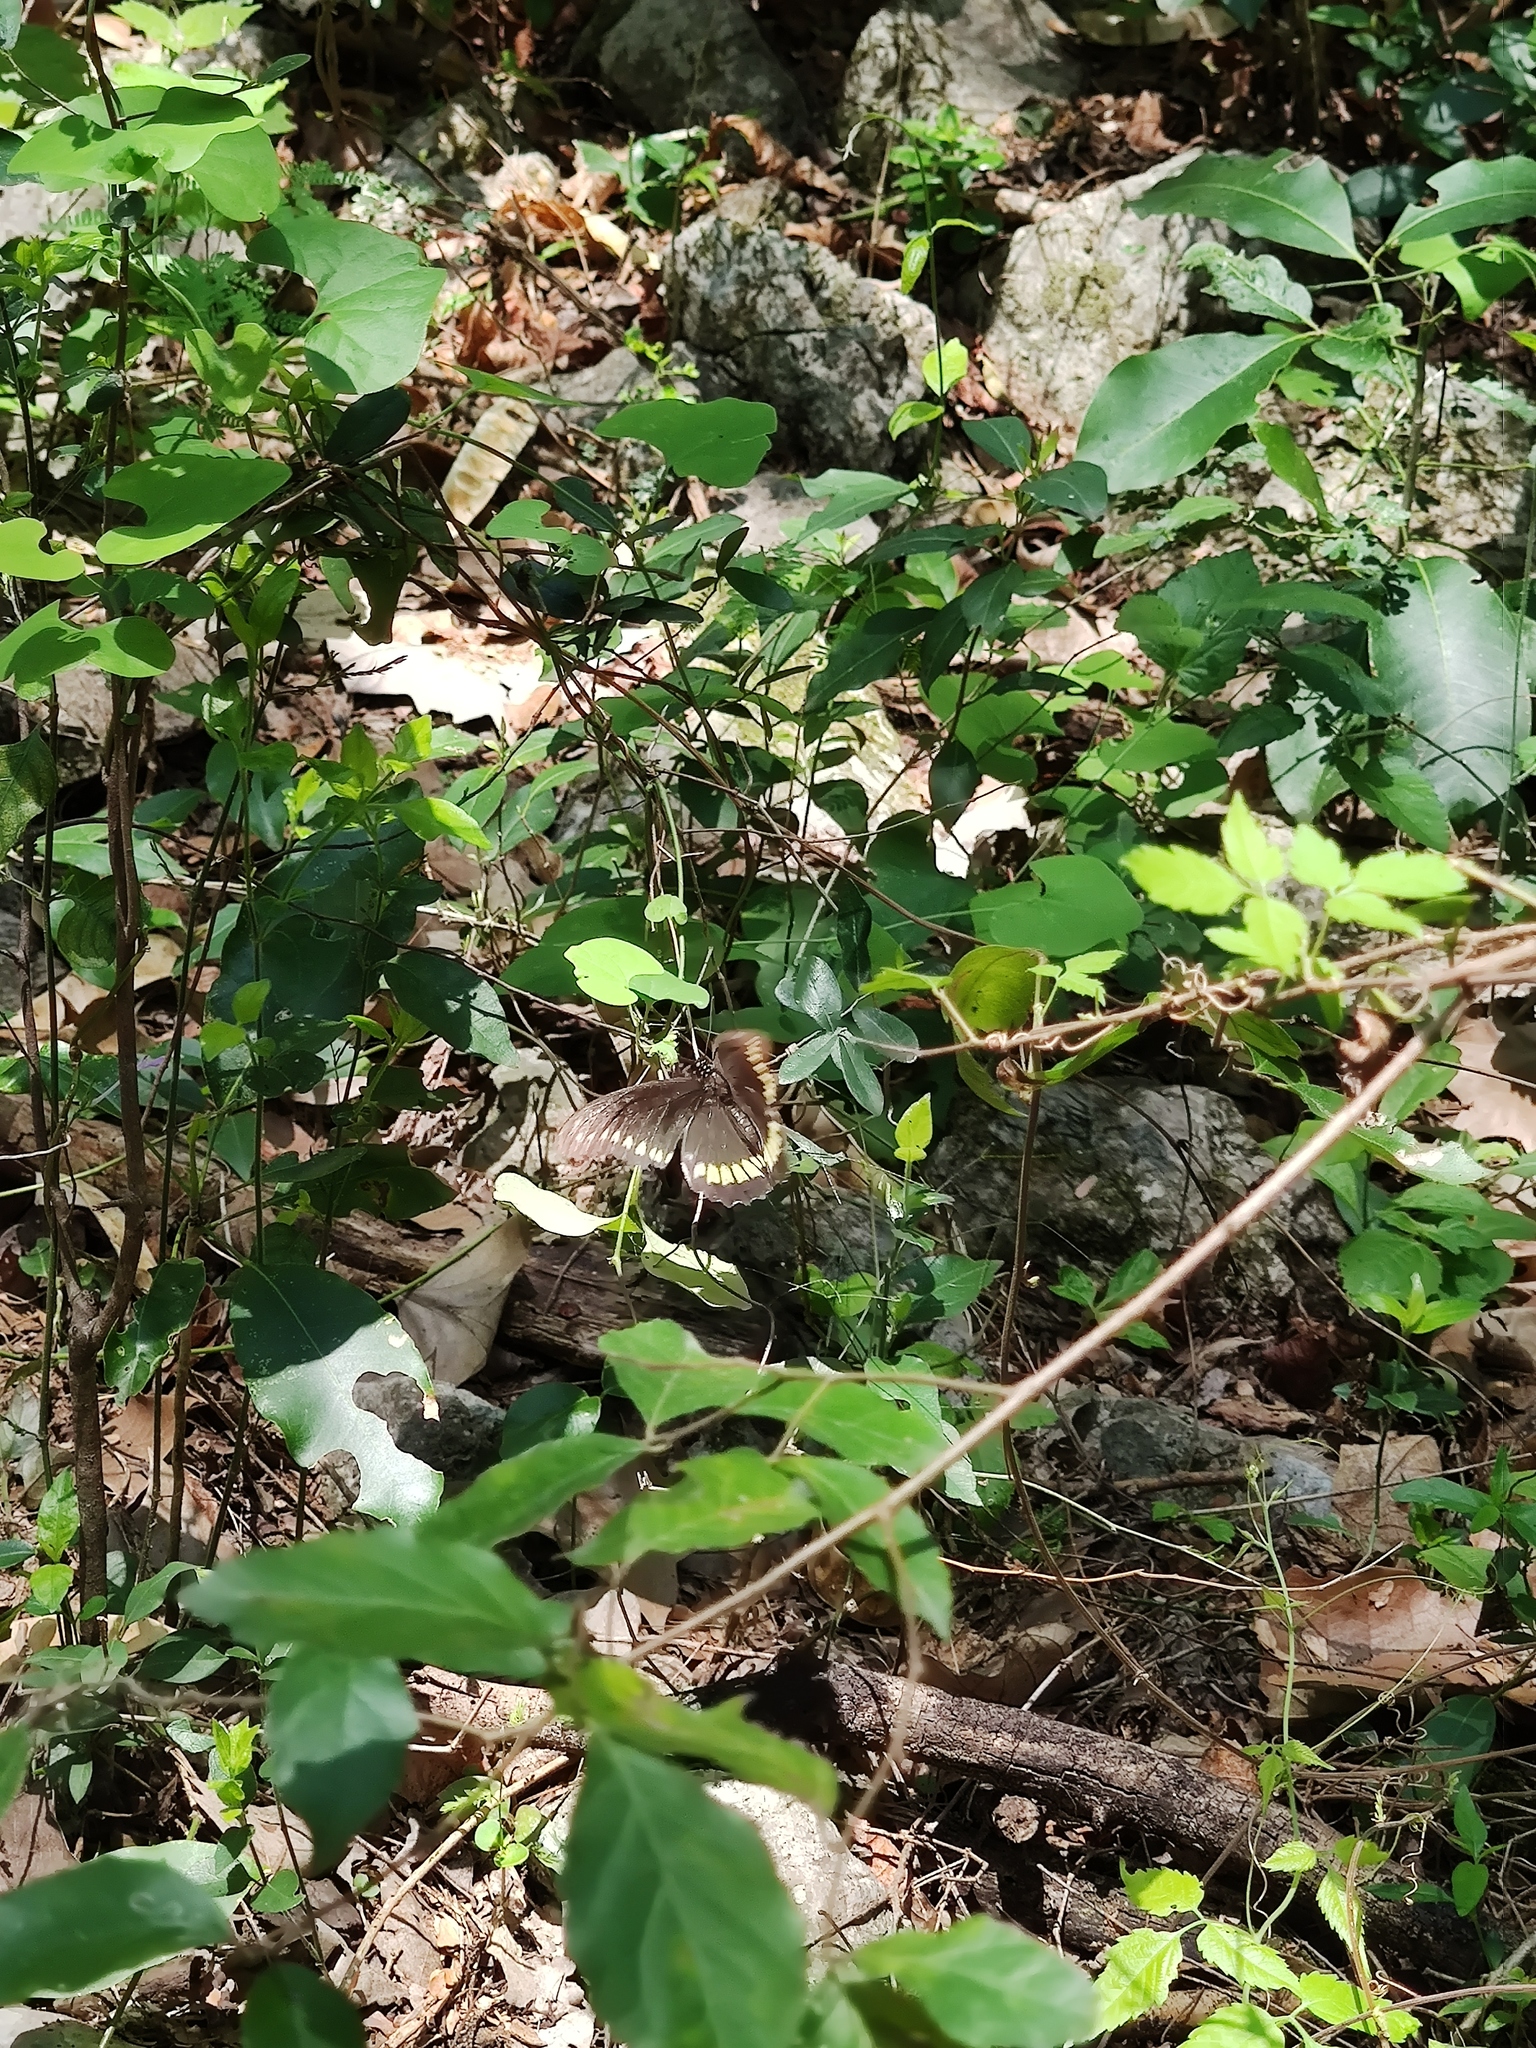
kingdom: Animalia
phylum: Arthropoda
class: Insecta
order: Lepidoptera
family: Papilionidae
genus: Battus
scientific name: Battus polydamas
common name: Polydamas swallowtail
